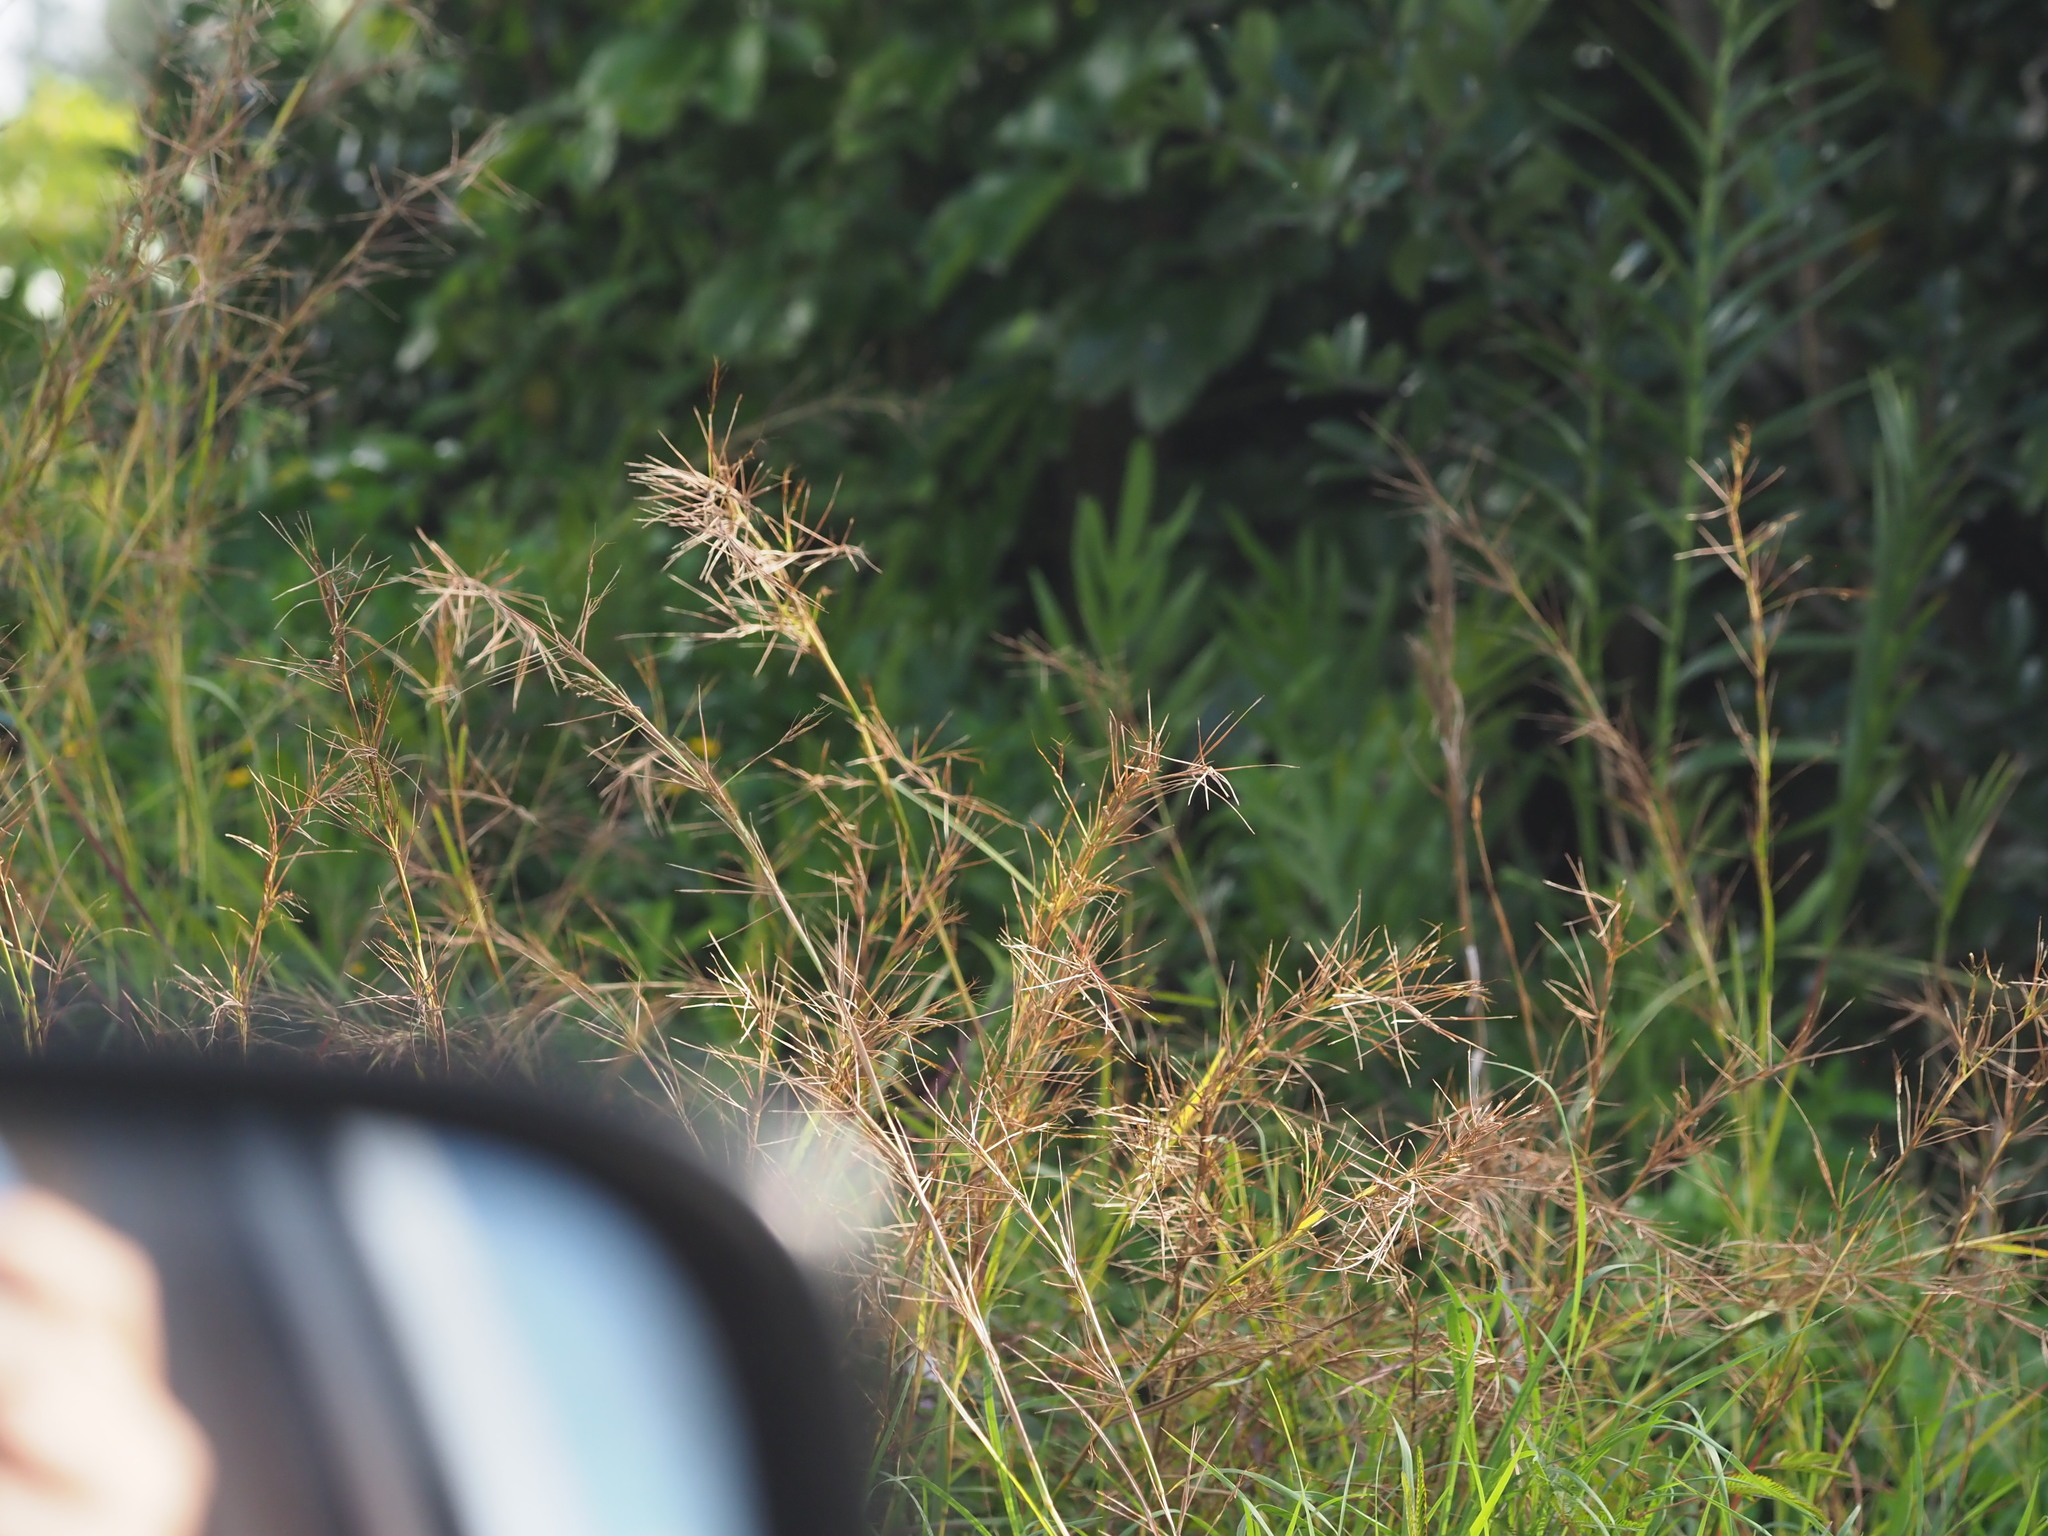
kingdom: Plantae
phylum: Tracheophyta
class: Liliopsida
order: Poales
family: Poaceae
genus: Hyparrhenia
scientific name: Hyparrhenia rufa
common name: Jaraguagrass
